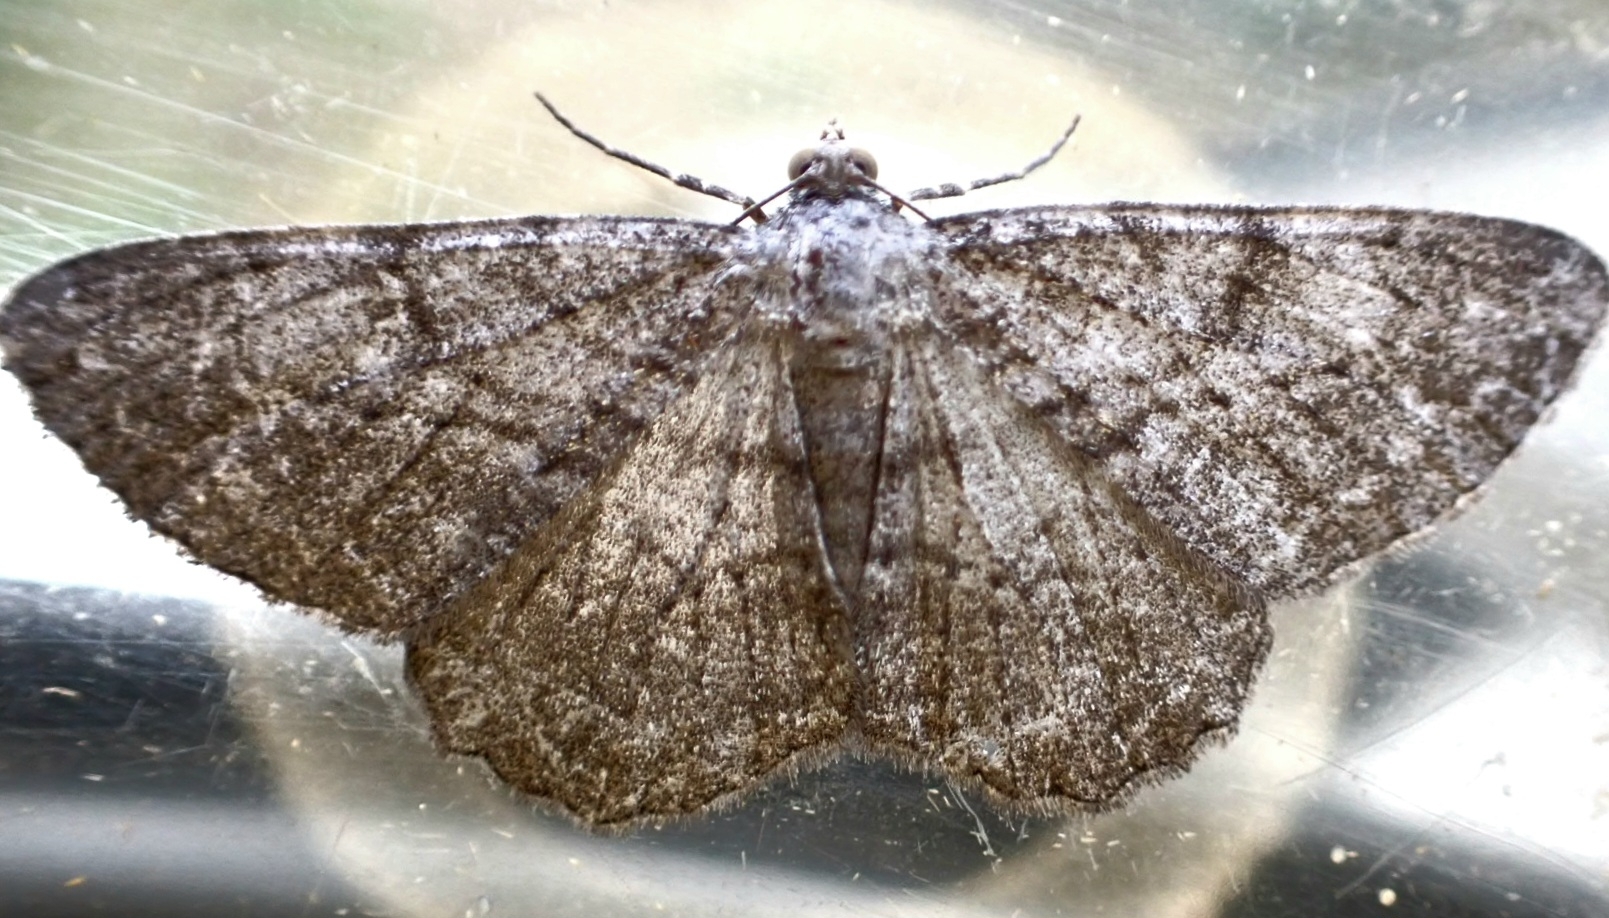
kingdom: Animalia
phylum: Arthropoda
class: Insecta
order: Lepidoptera
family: Geometridae
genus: Peribatodes
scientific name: Peribatodes rhomboidaria
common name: Willow beauty
